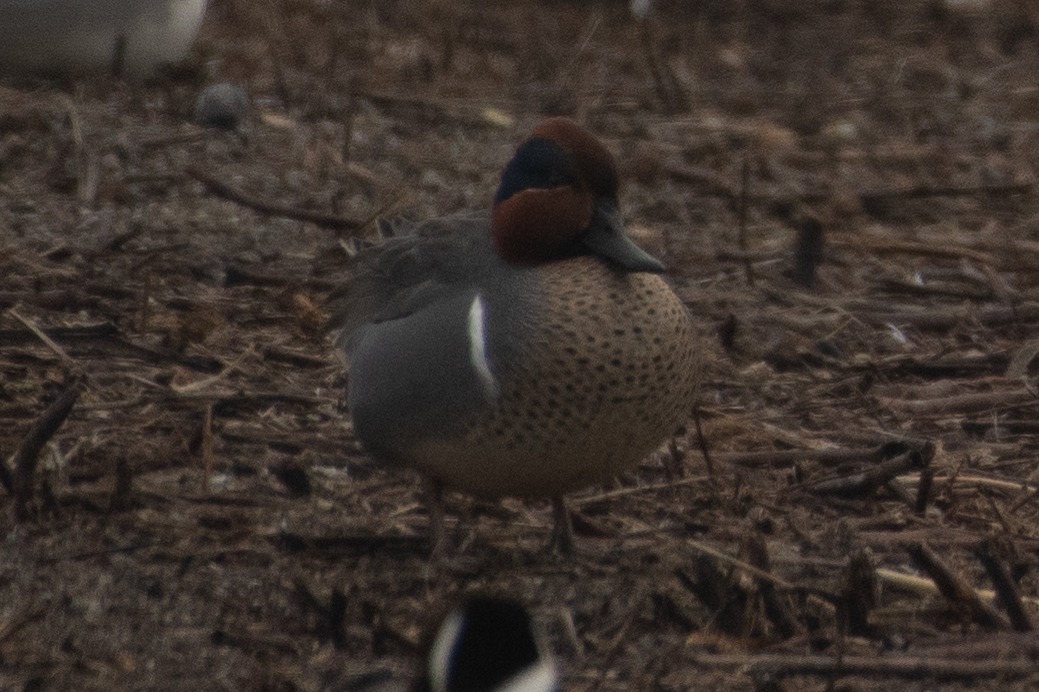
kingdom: Animalia
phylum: Chordata
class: Aves
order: Anseriformes
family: Anatidae
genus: Anas
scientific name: Anas crecca
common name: Eurasian teal
